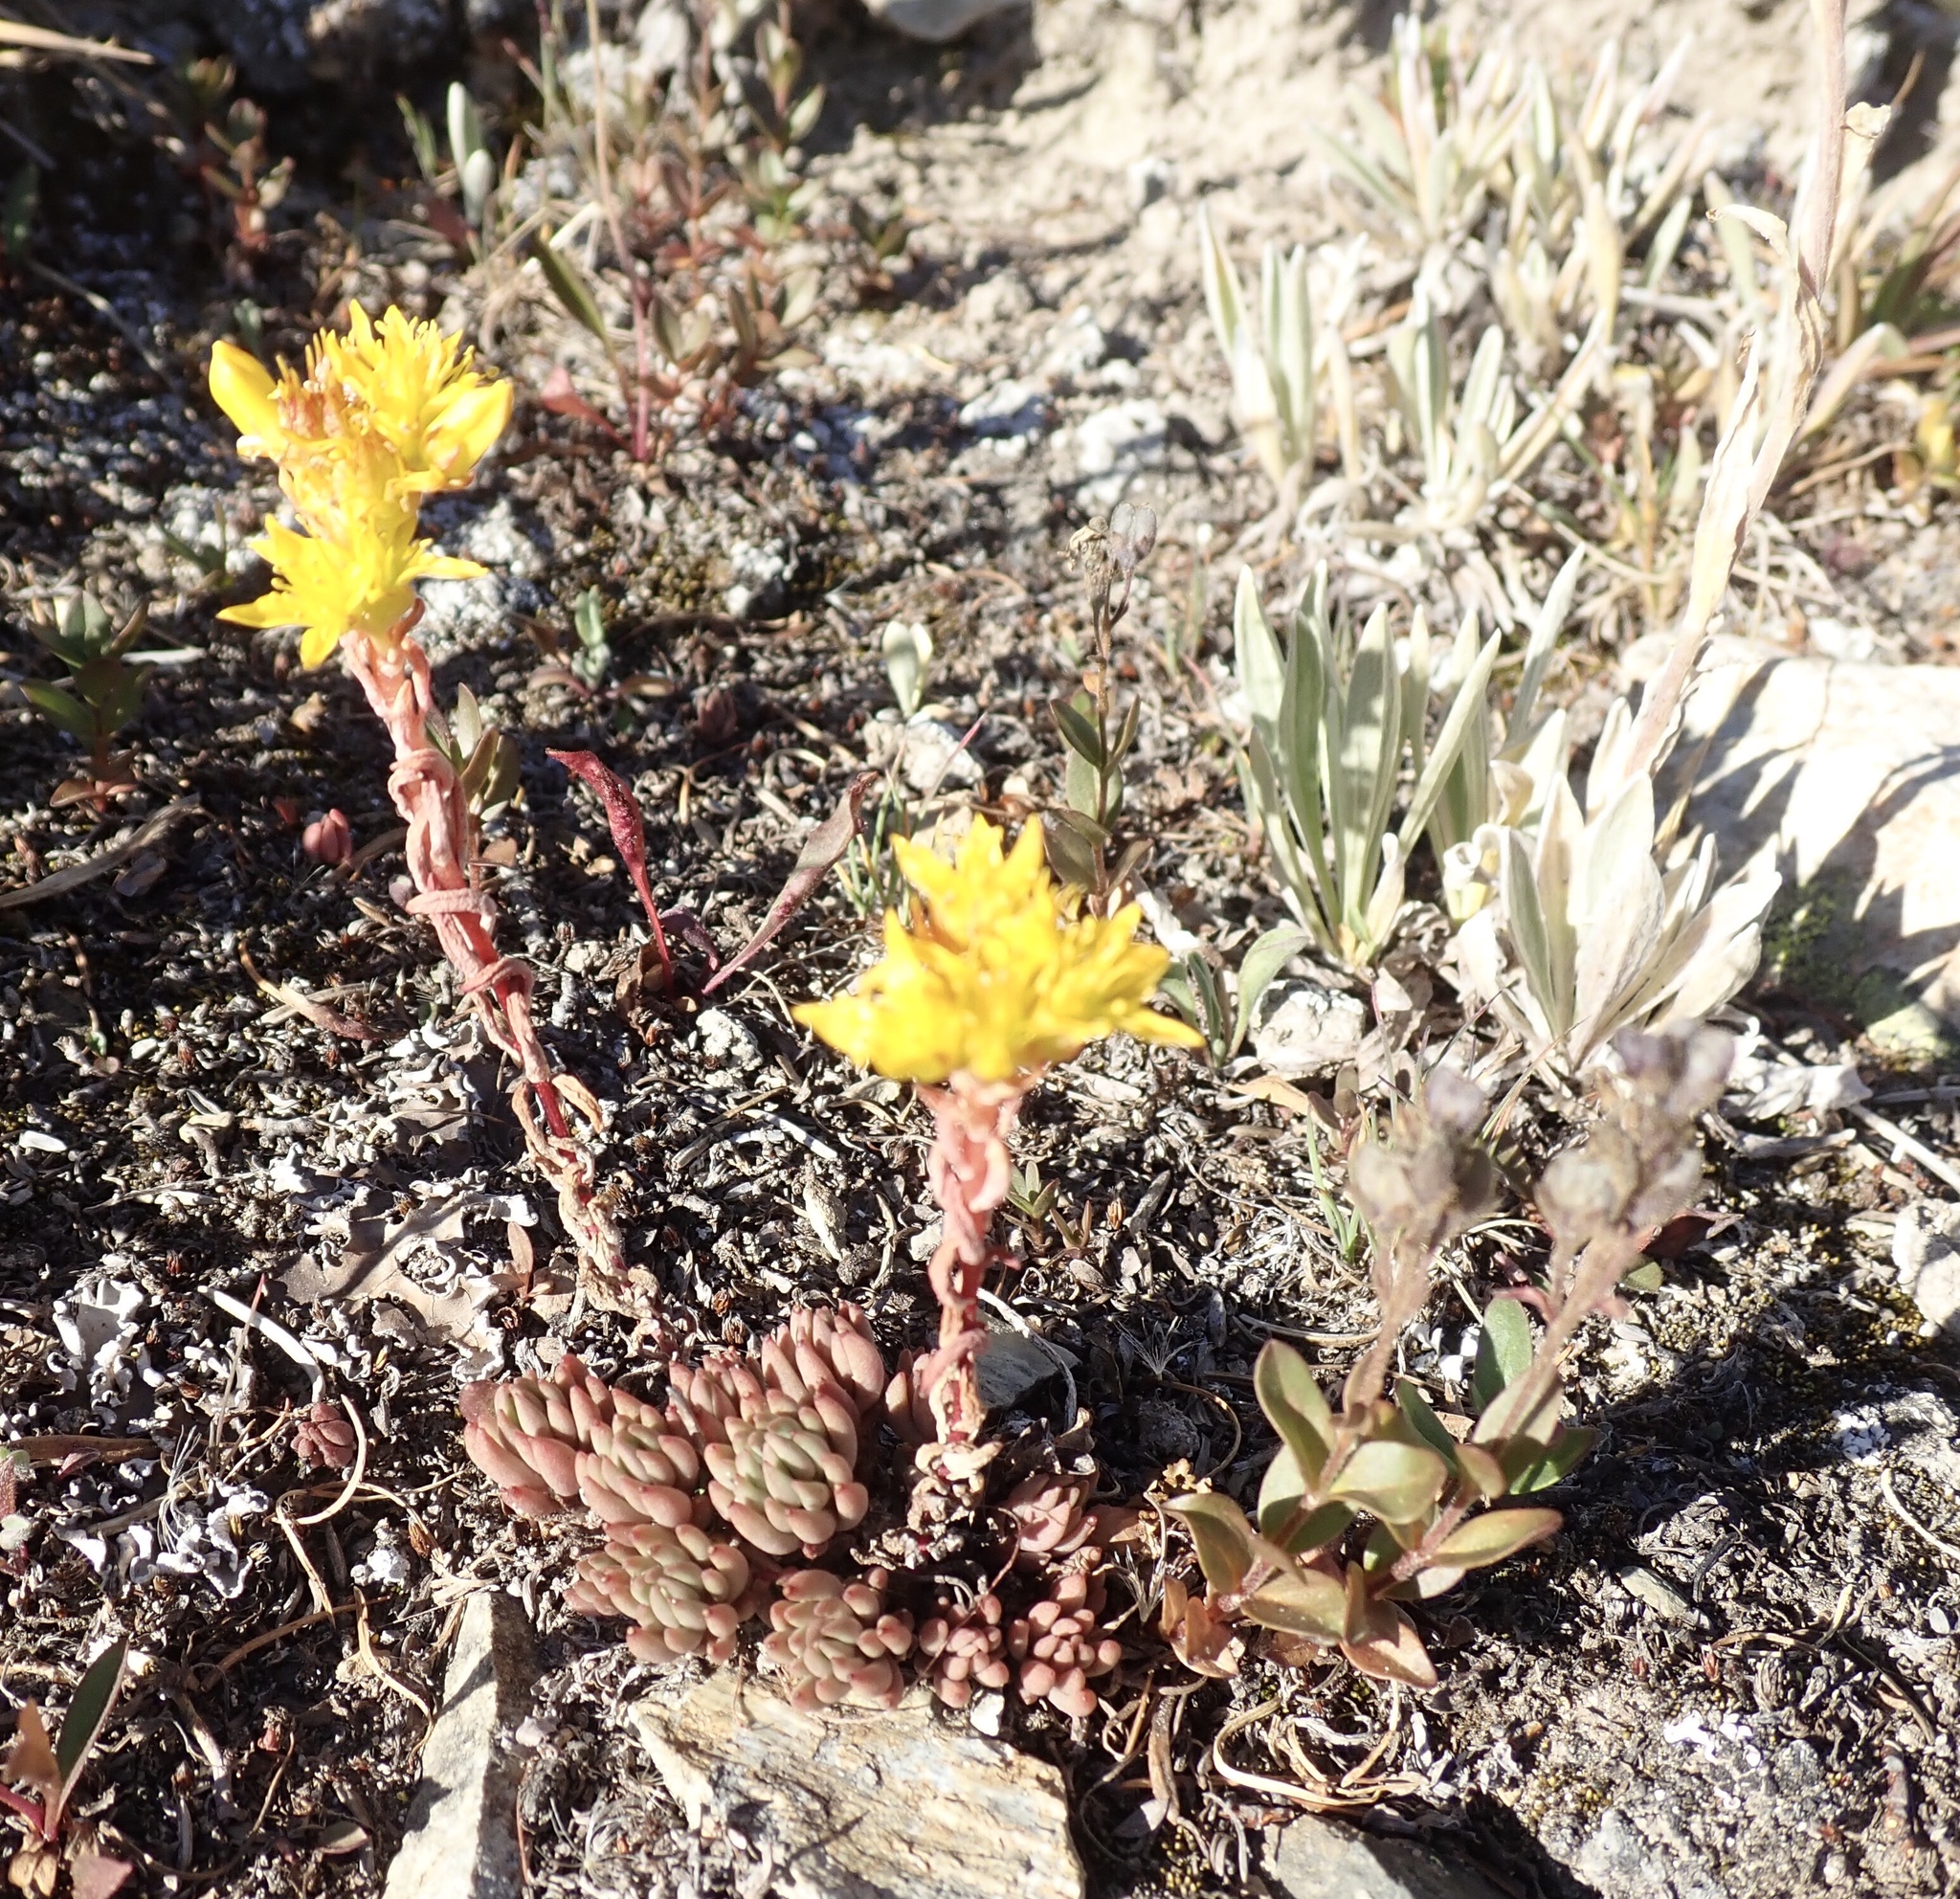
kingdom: Plantae
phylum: Tracheophyta
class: Magnoliopsida
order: Saxifragales
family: Crassulaceae
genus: Sedum
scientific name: Sedum lanceolatum
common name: Common stonecrop
